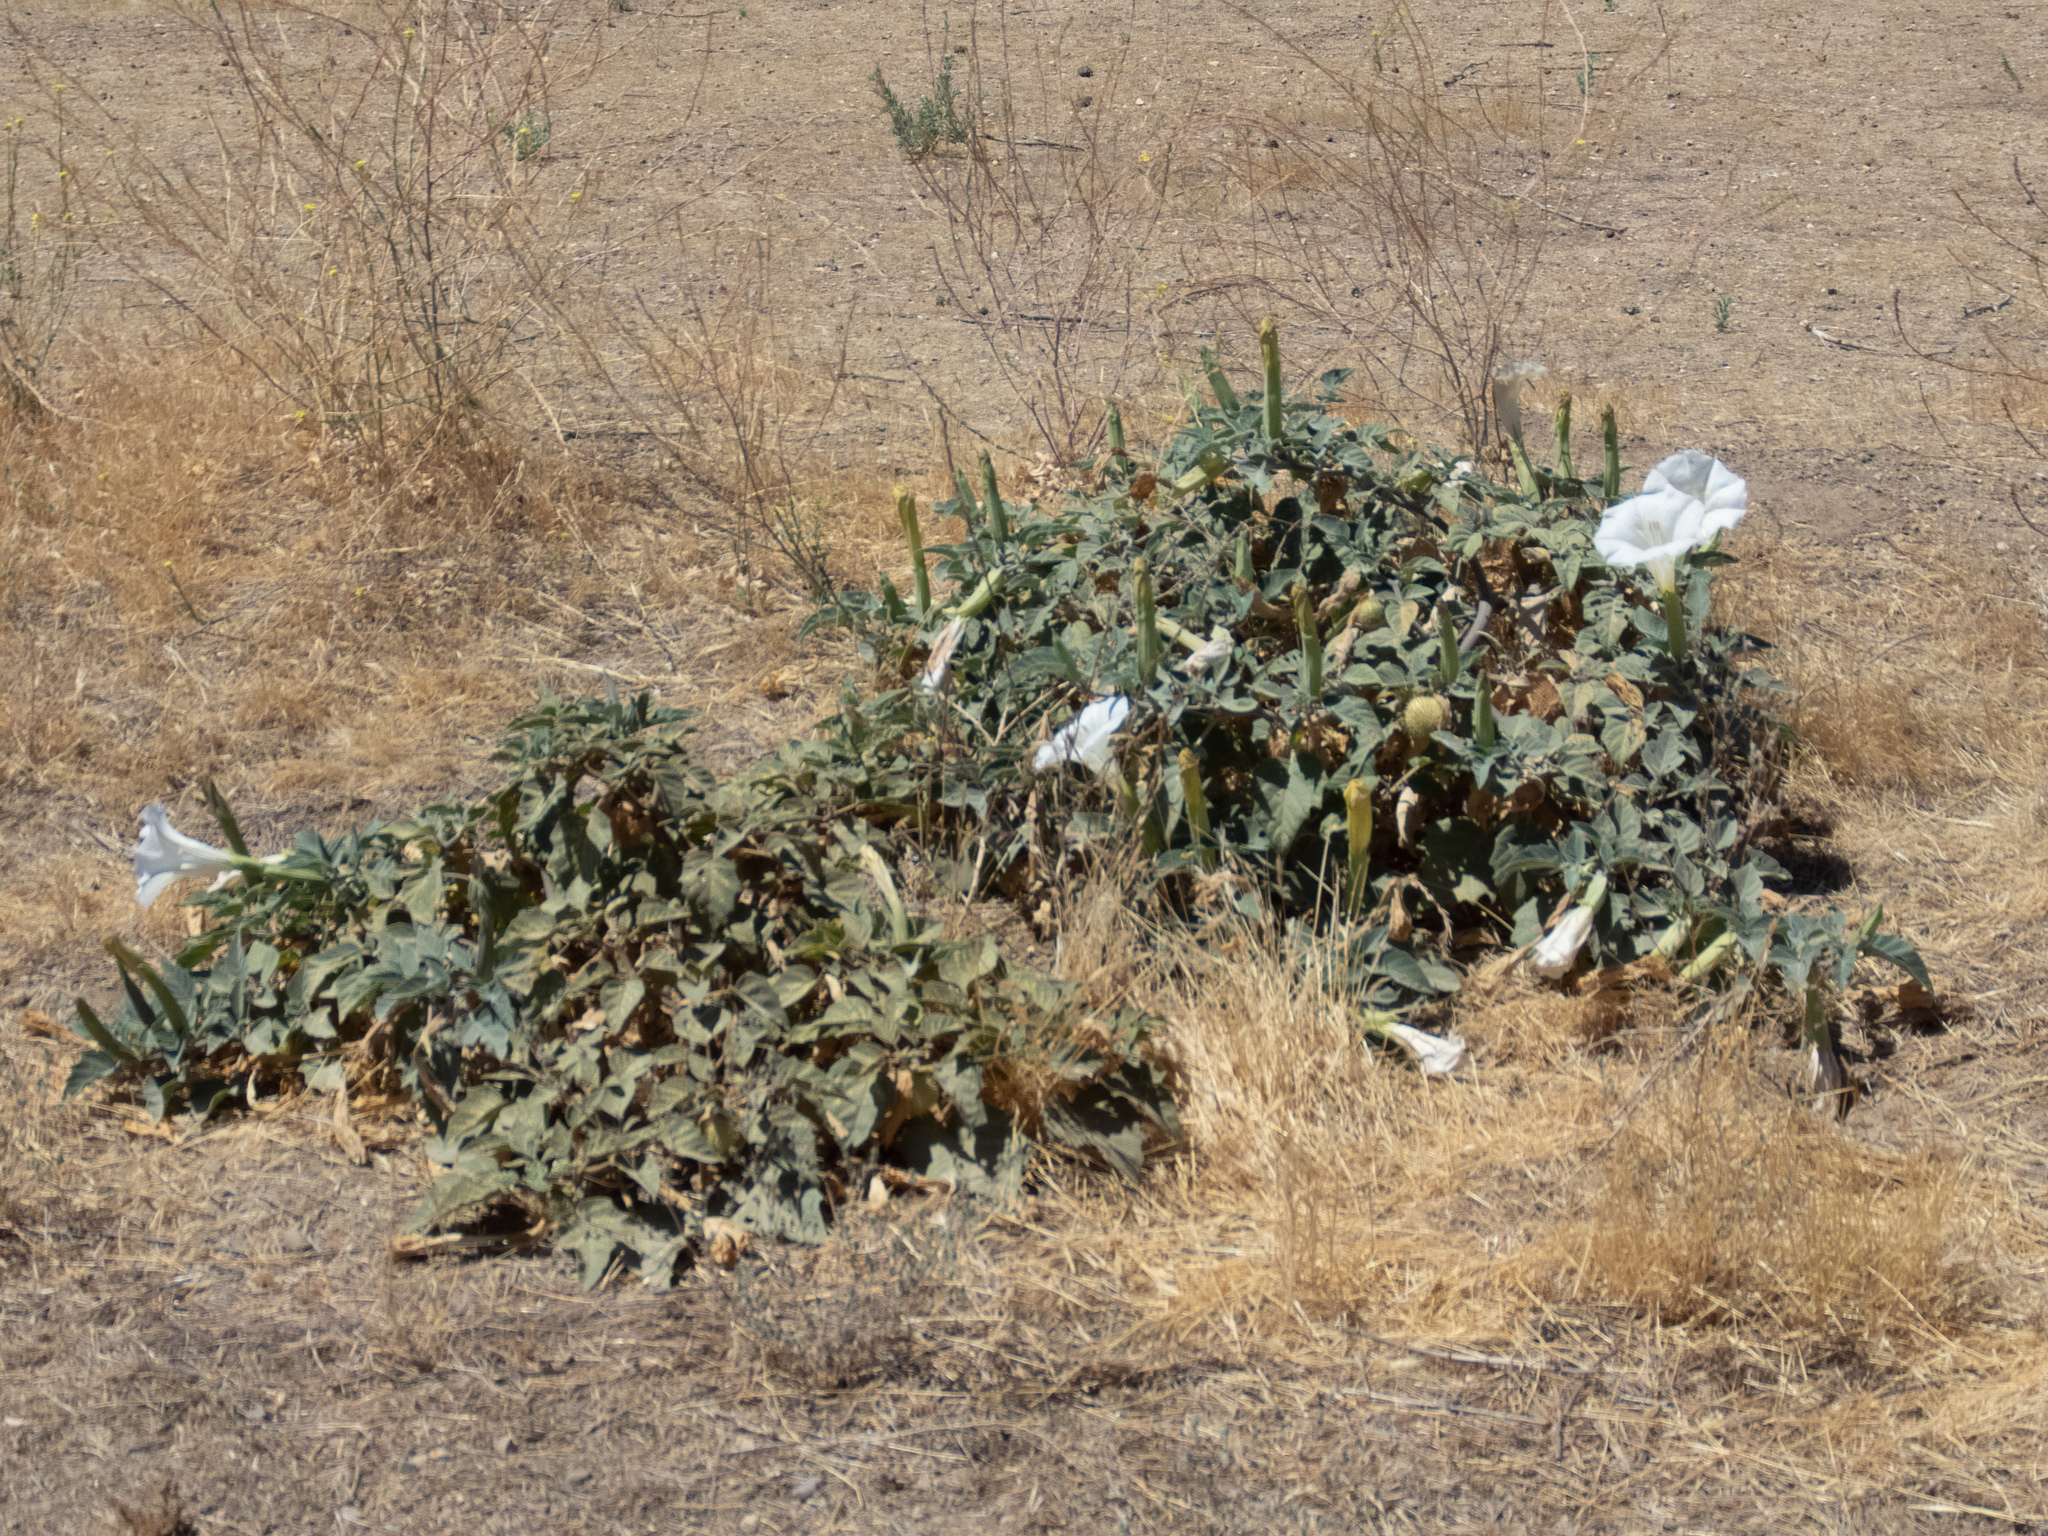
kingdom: Plantae
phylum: Tracheophyta
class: Magnoliopsida
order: Solanales
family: Solanaceae
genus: Datura
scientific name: Datura wrightii
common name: Sacred thorn-apple
